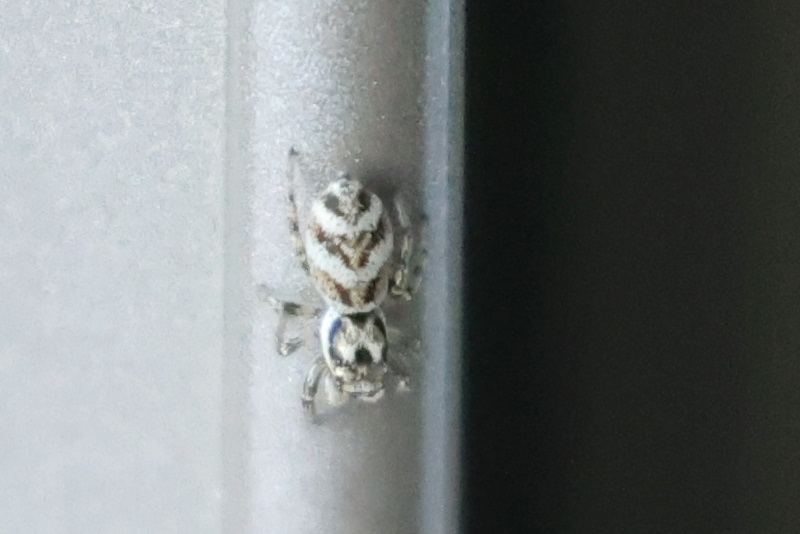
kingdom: Animalia
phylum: Arthropoda
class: Arachnida
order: Araneae
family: Salticidae
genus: Salticus
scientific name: Salticus scenicus
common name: Zebra jumper
